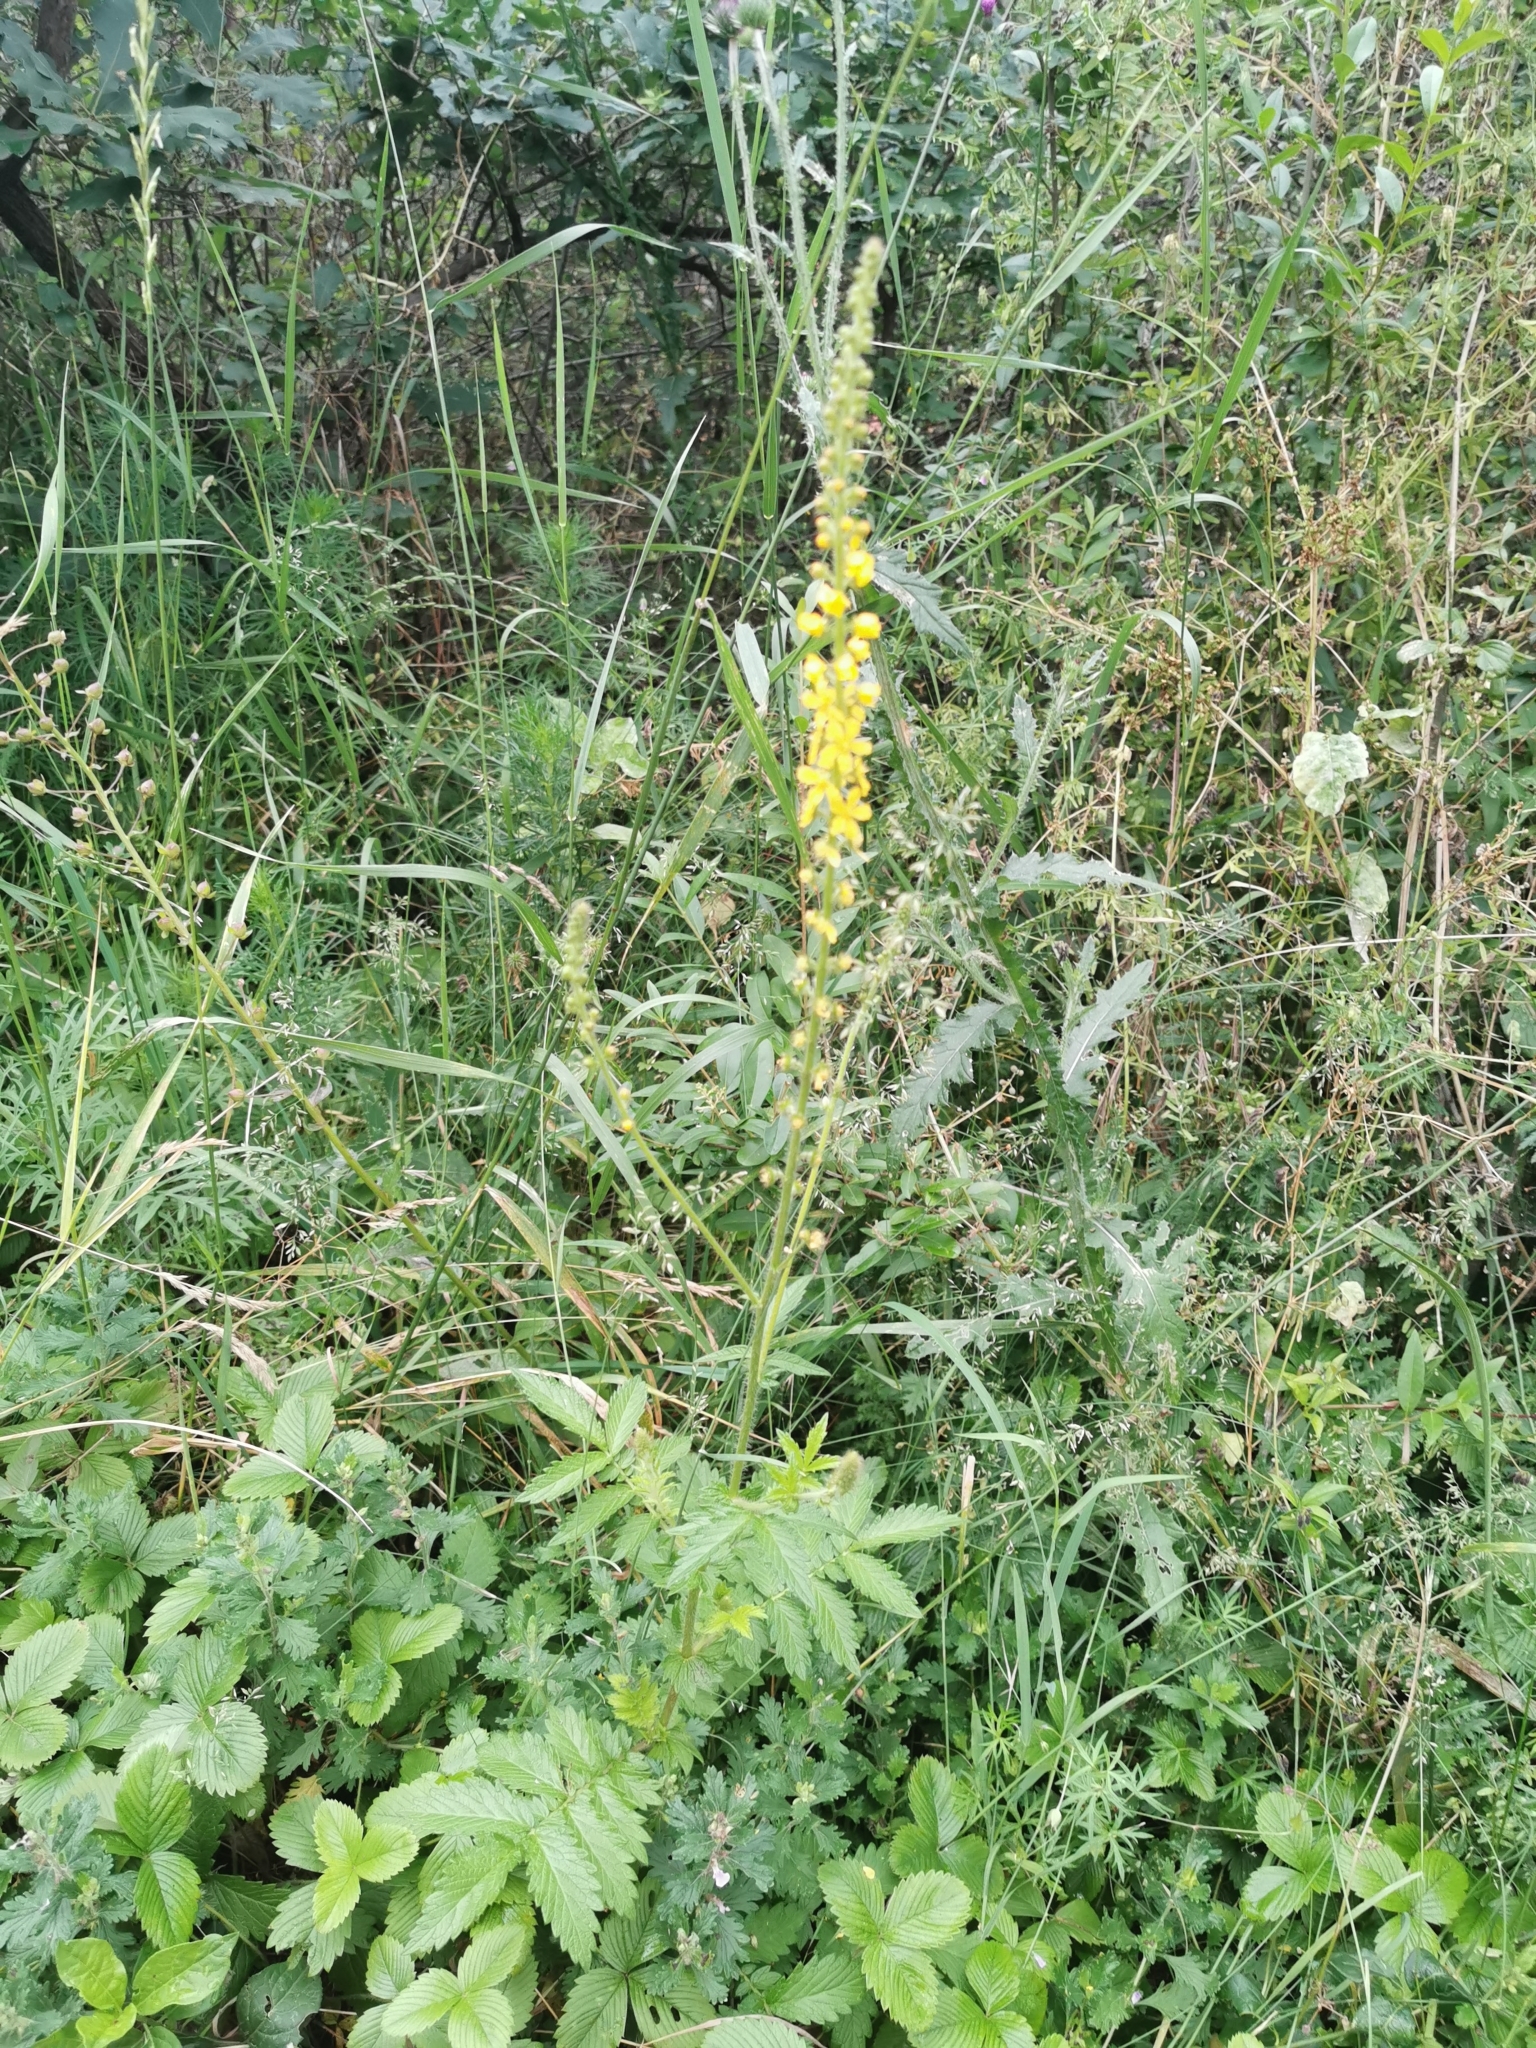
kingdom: Plantae
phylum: Tracheophyta
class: Magnoliopsida
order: Rosales
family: Rosaceae
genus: Agrimonia
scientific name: Agrimonia eupatoria
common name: Agrimony
